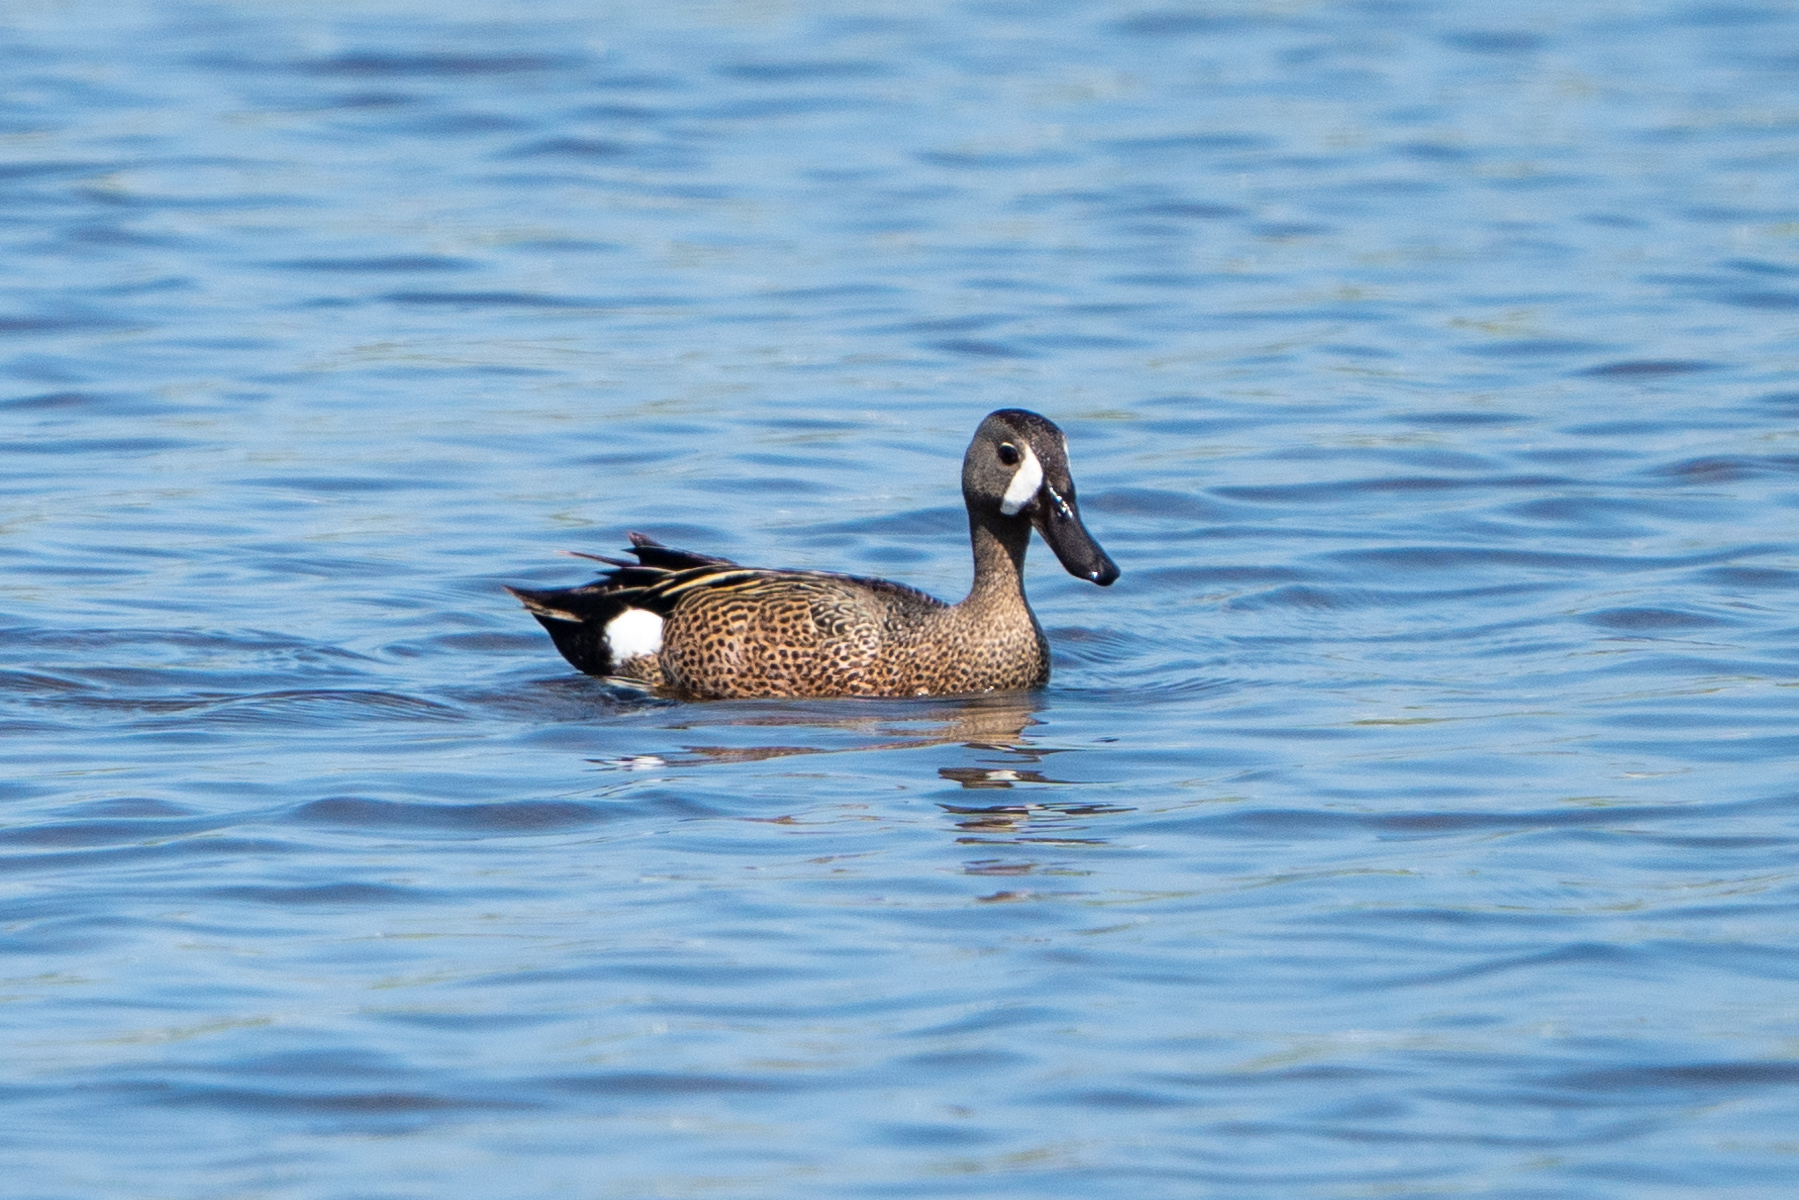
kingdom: Animalia
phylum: Chordata
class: Aves
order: Anseriformes
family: Anatidae
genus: Spatula
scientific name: Spatula discors
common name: Blue-winged teal
